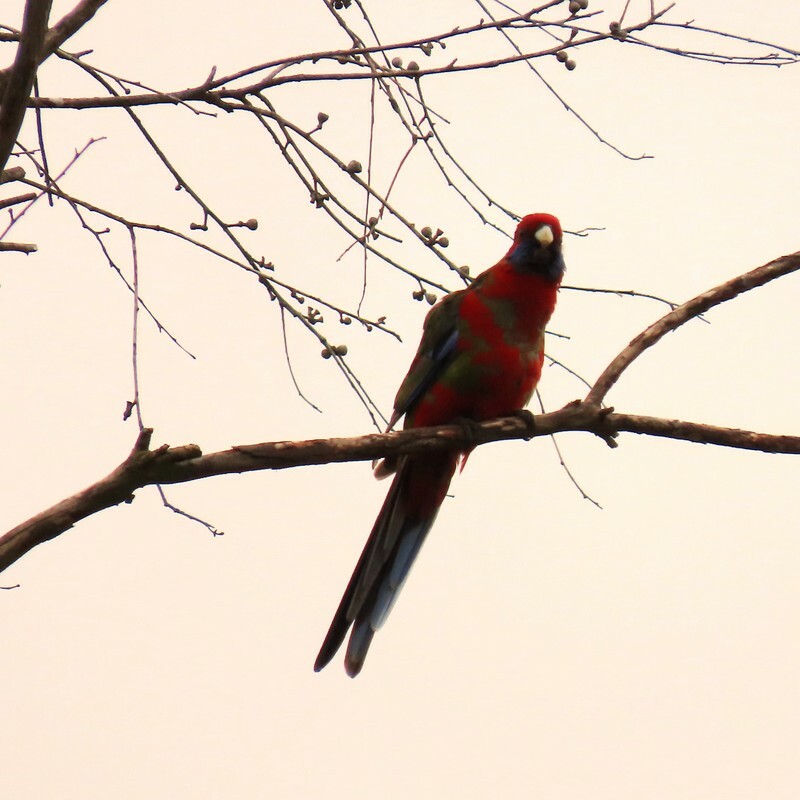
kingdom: Animalia
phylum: Chordata
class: Aves
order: Psittaciformes
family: Psittacidae
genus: Platycercus
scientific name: Platycercus elegans
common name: Crimson rosella
